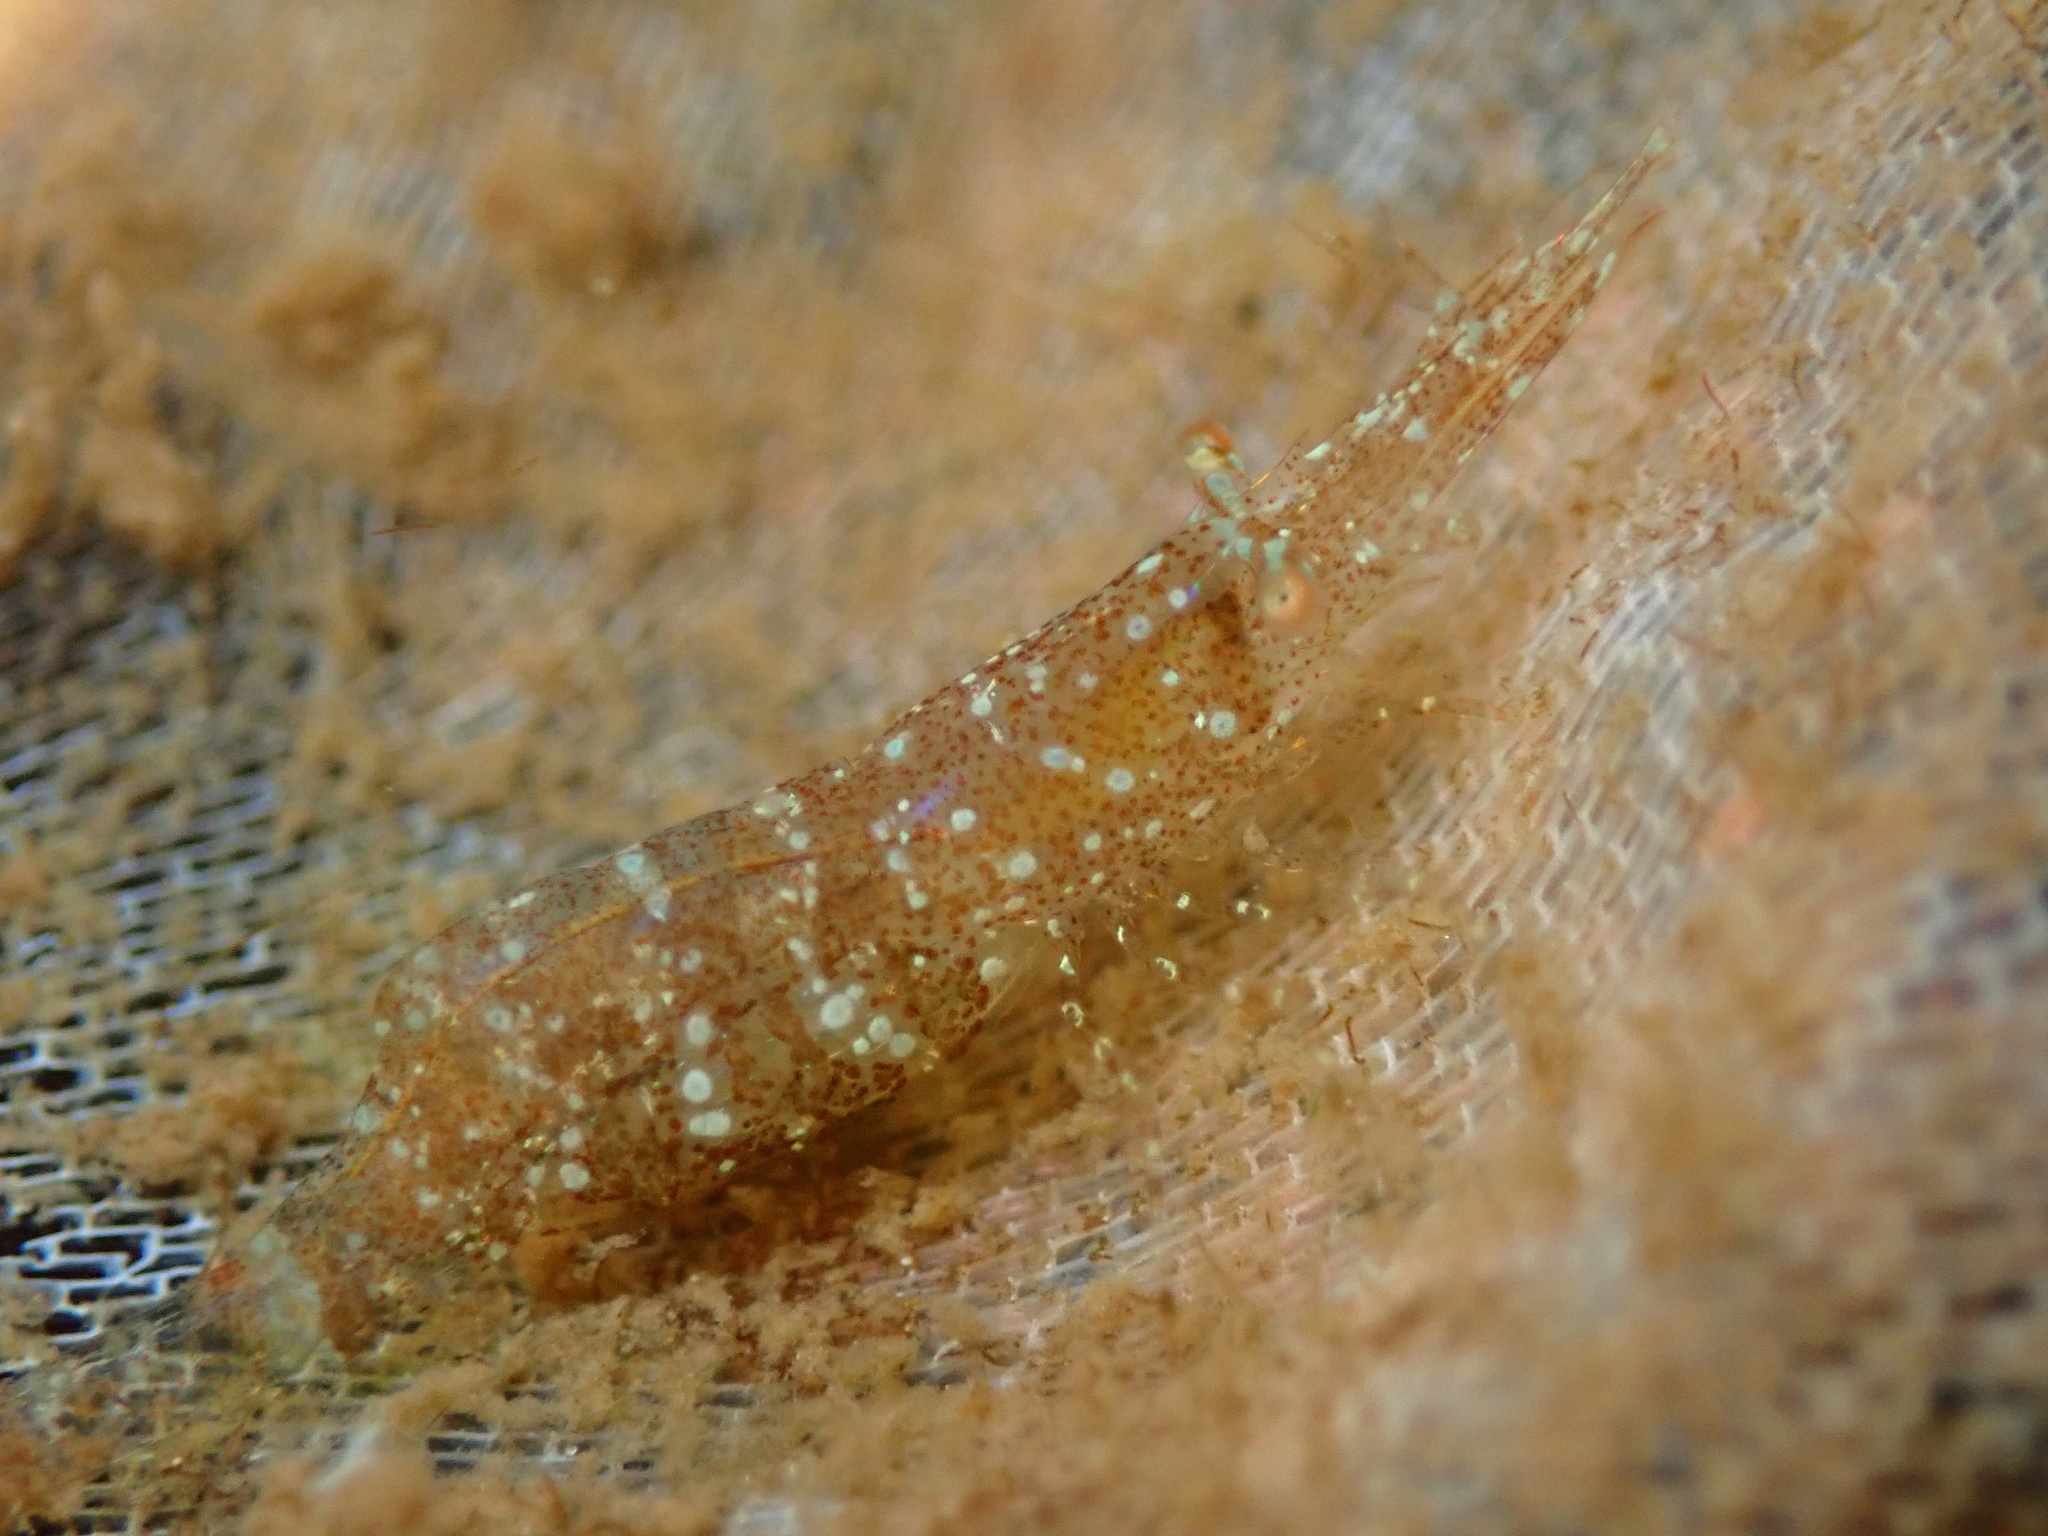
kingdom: Animalia
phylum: Arthropoda
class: Malacostraca
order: Decapoda
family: Hippolytidae
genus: Hippolyte
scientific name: Hippolyte clarki
